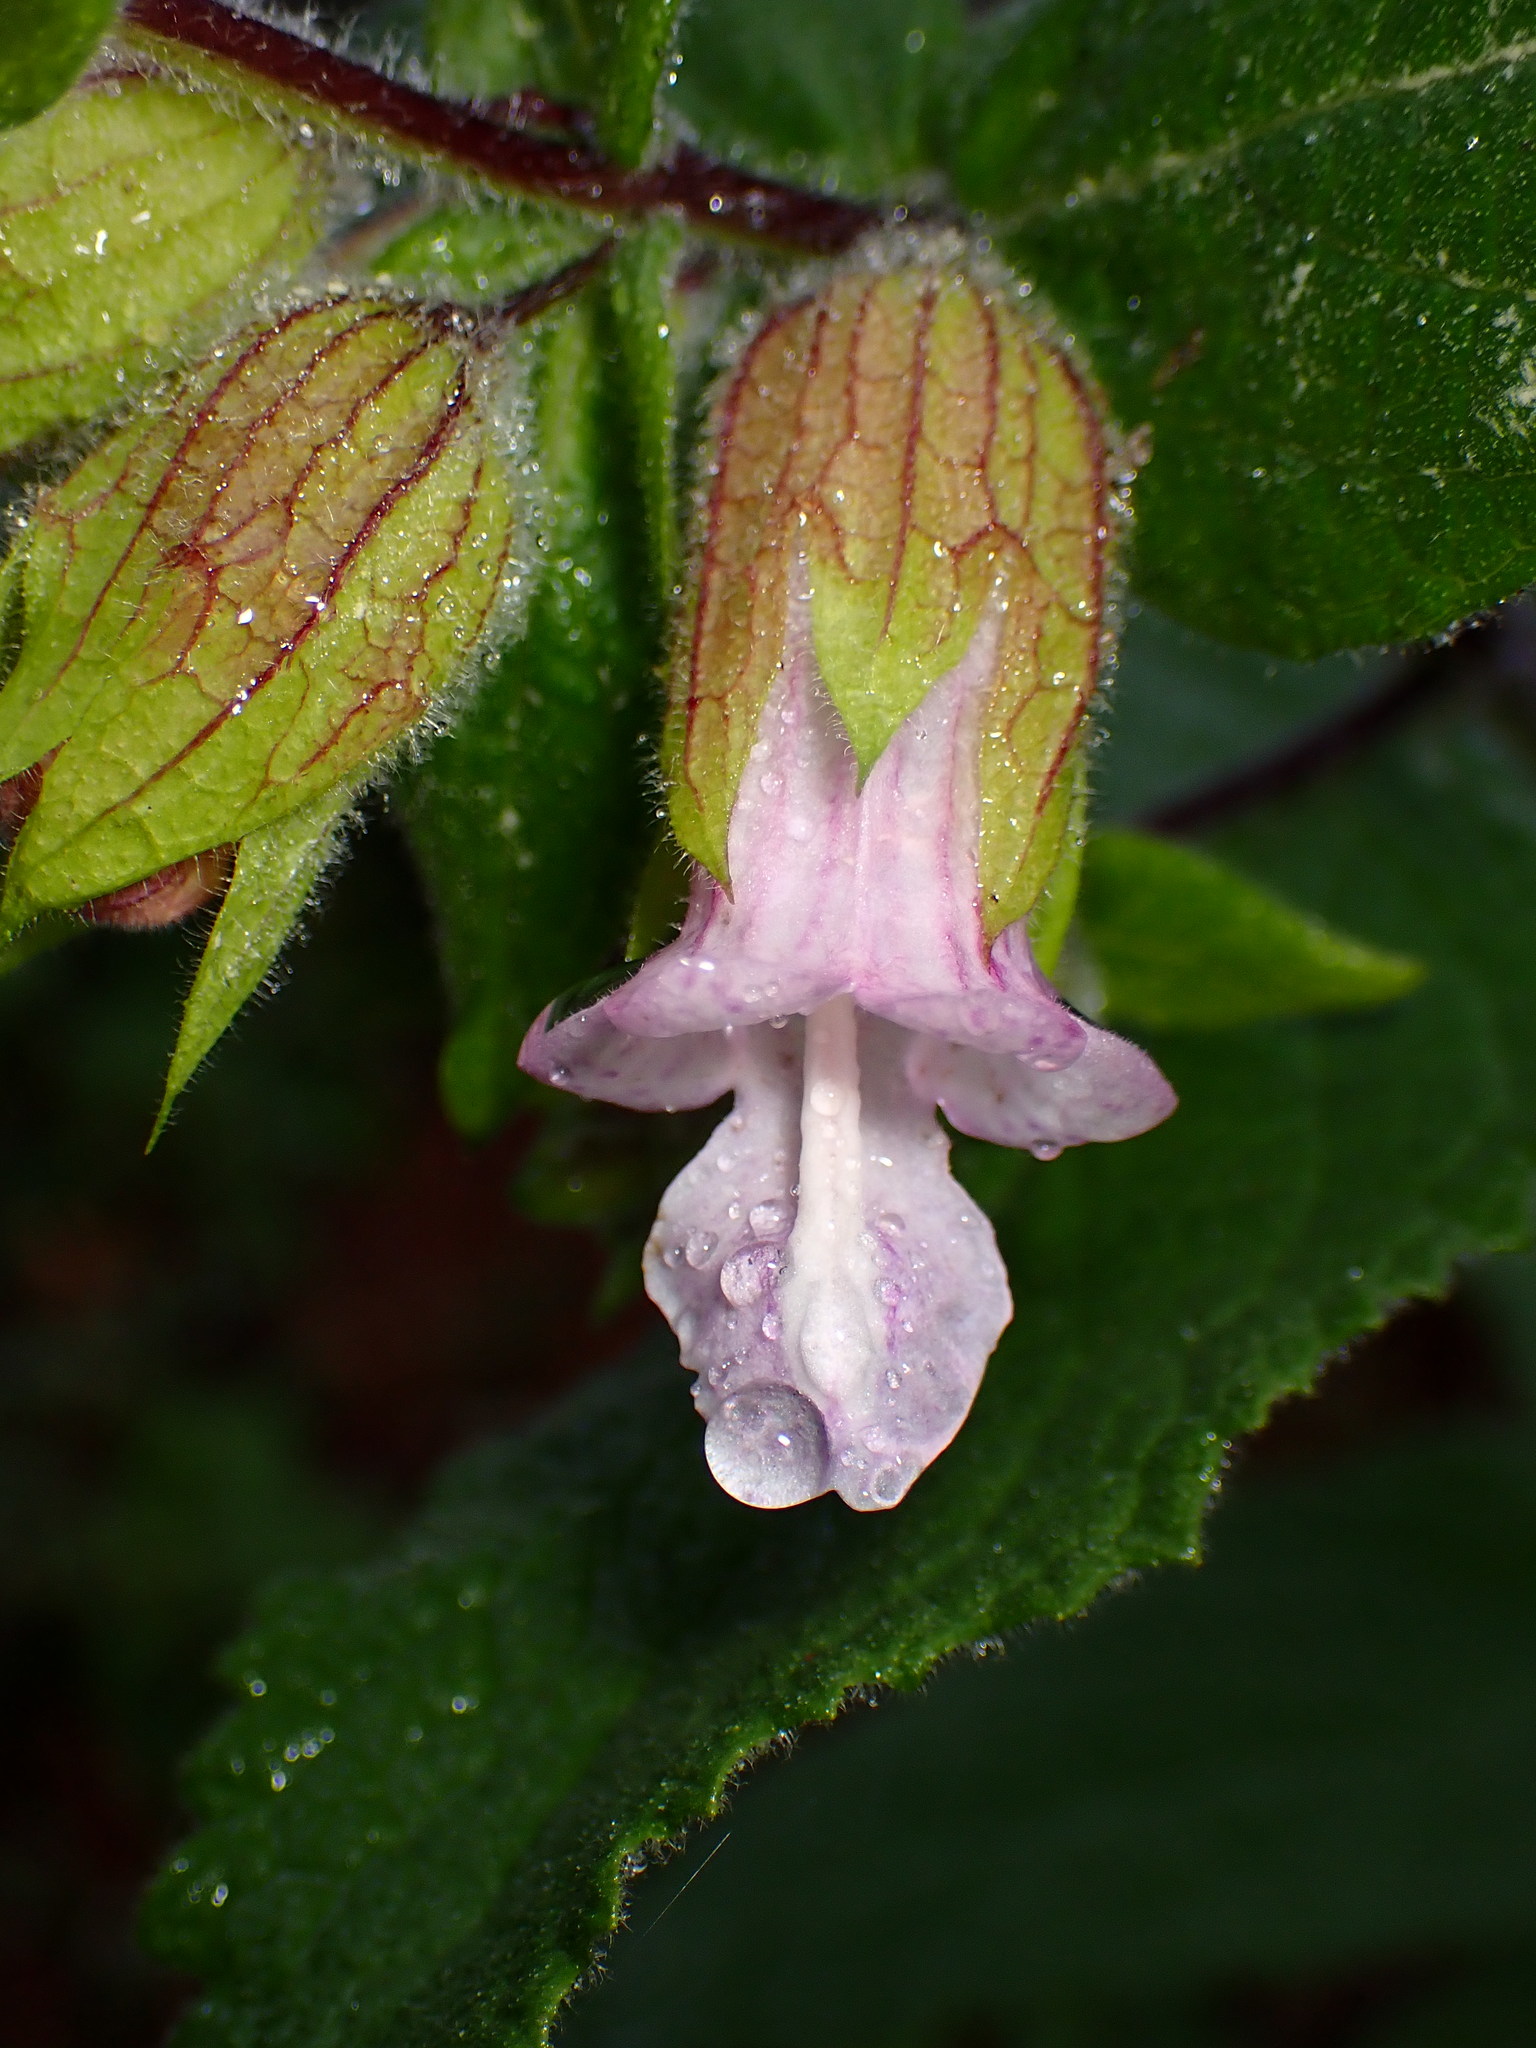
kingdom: Plantae
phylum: Tracheophyta
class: Magnoliopsida
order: Lamiales
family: Lamiaceae
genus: Lepechinia
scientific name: Lepechinia calycina
